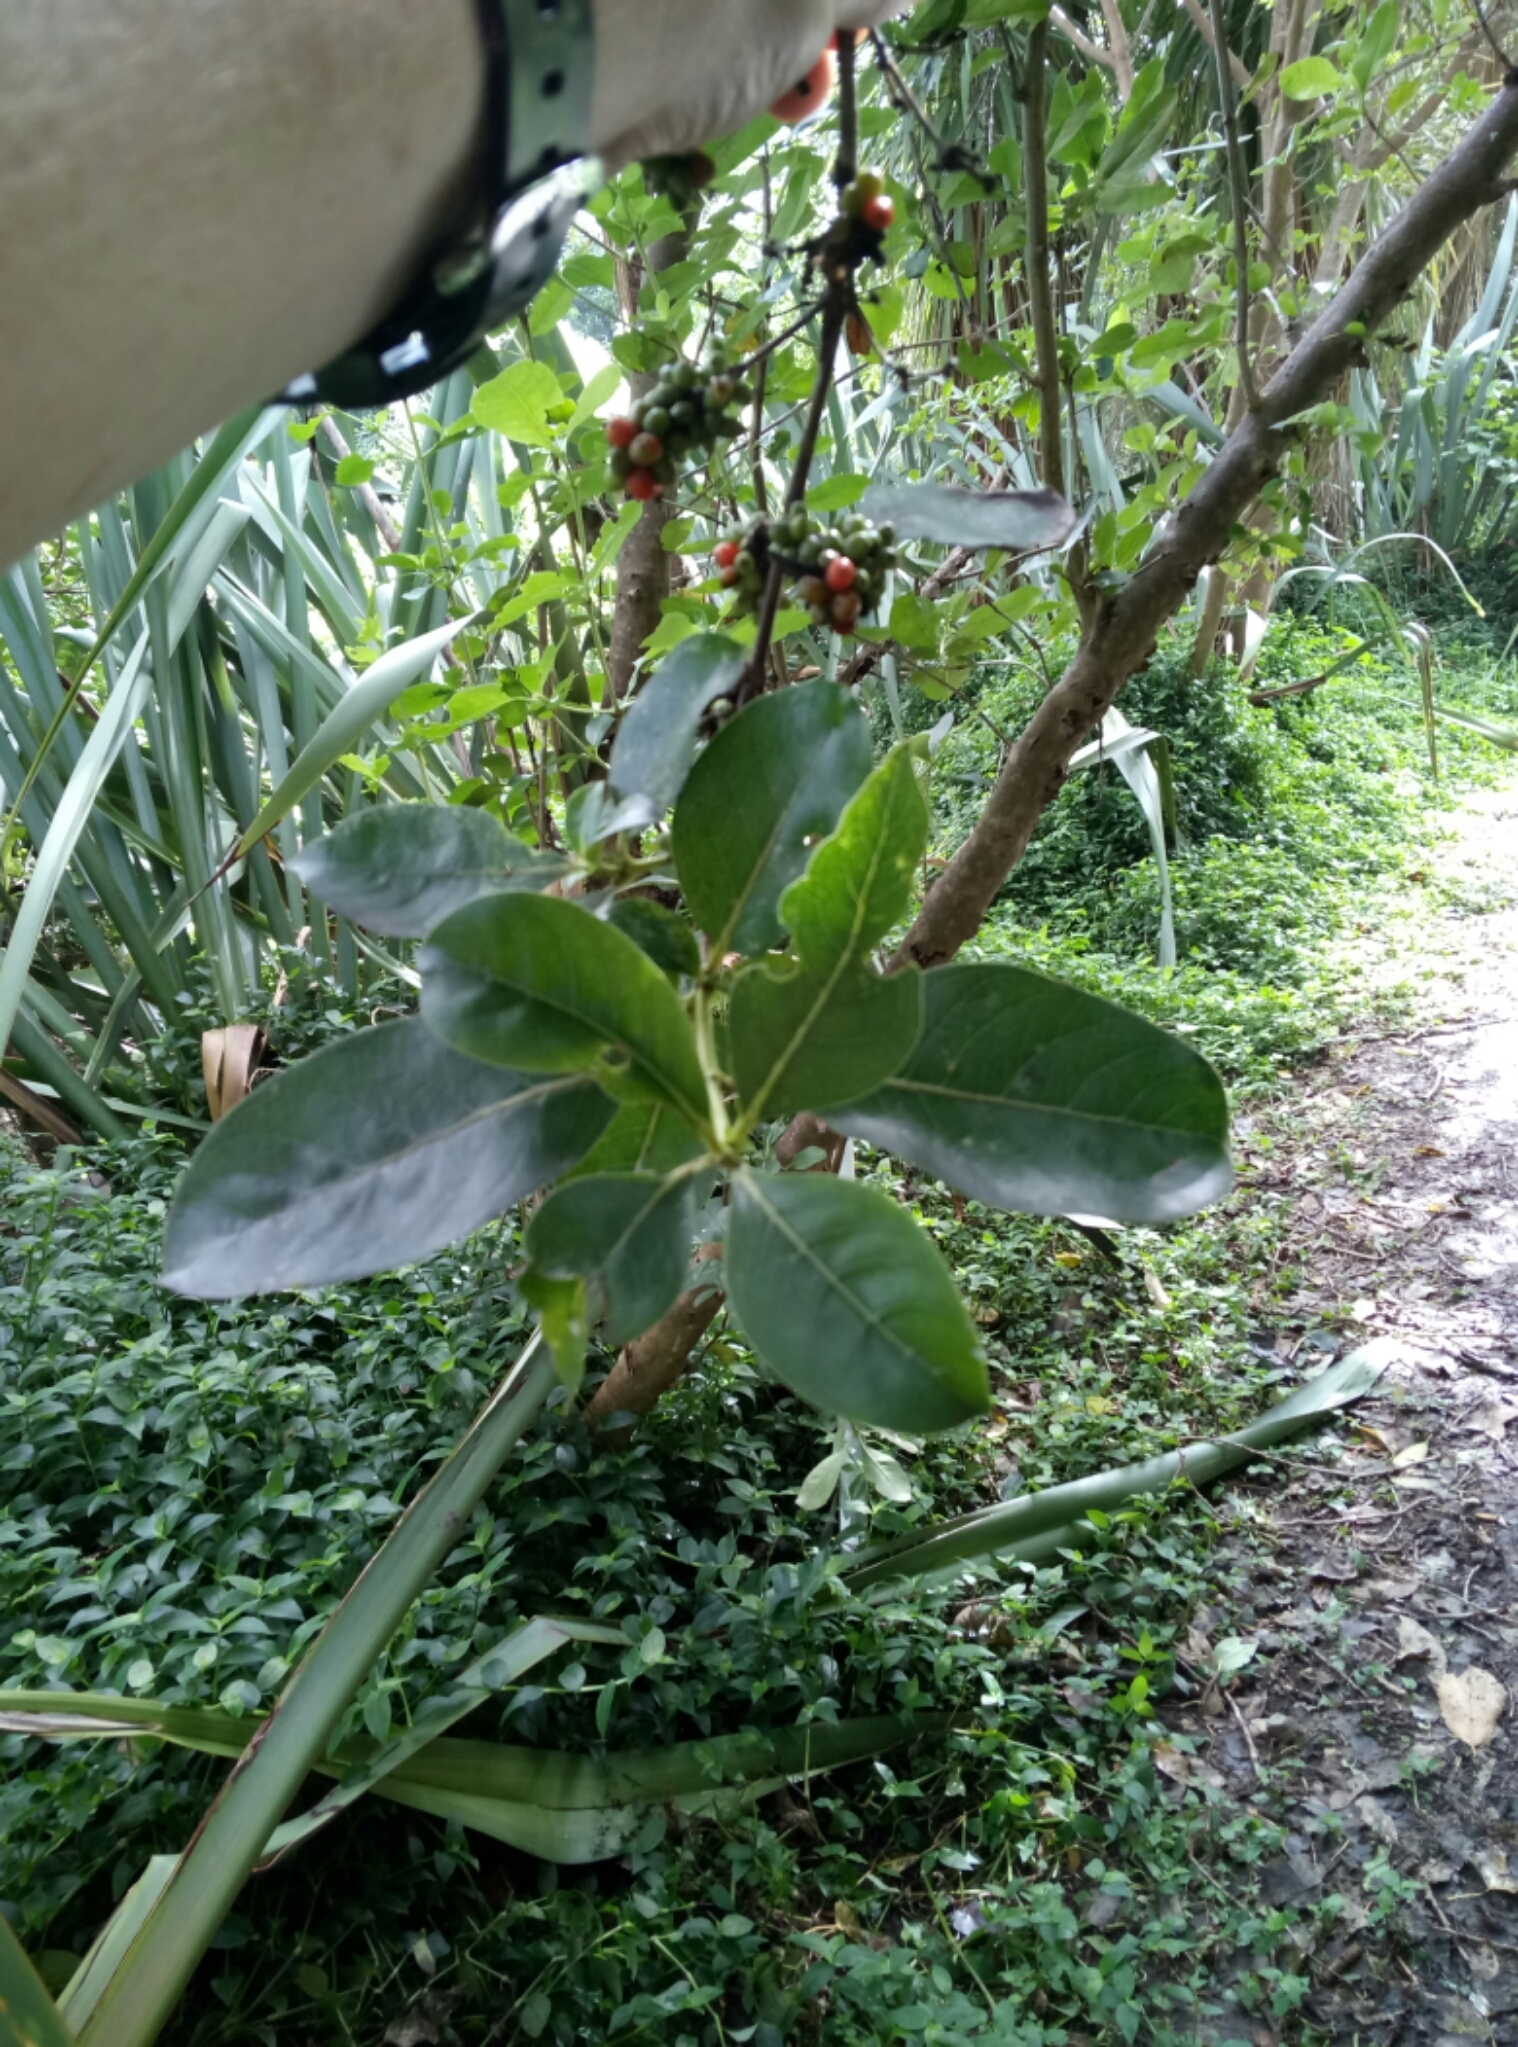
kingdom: Plantae
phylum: Tracheophyta
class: Magnoliopsida
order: Gentianales
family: Rubiaceae
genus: Coprosma
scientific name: Coprosma robusta
